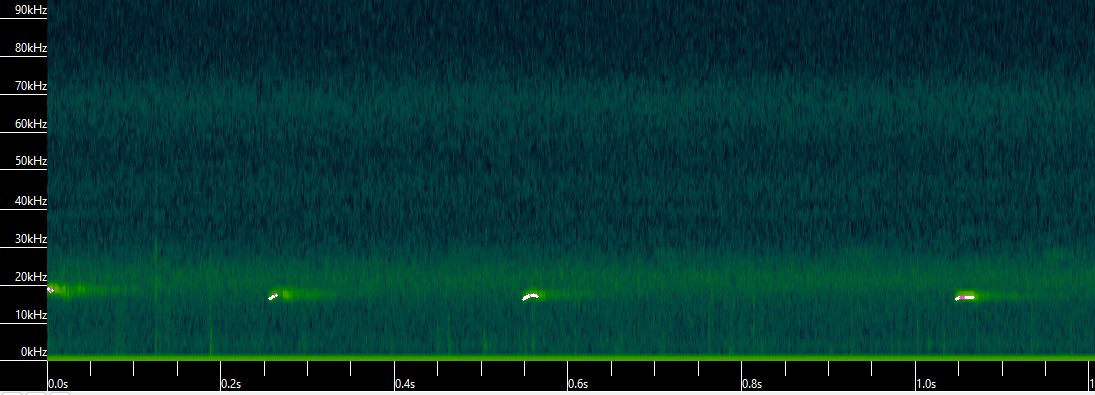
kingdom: Animalia
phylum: Chordata
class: Mammalia
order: Chiroptera
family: Vespertilionidae
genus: Aeorestes
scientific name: Aeorestes cinereus
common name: North american hoary bat
